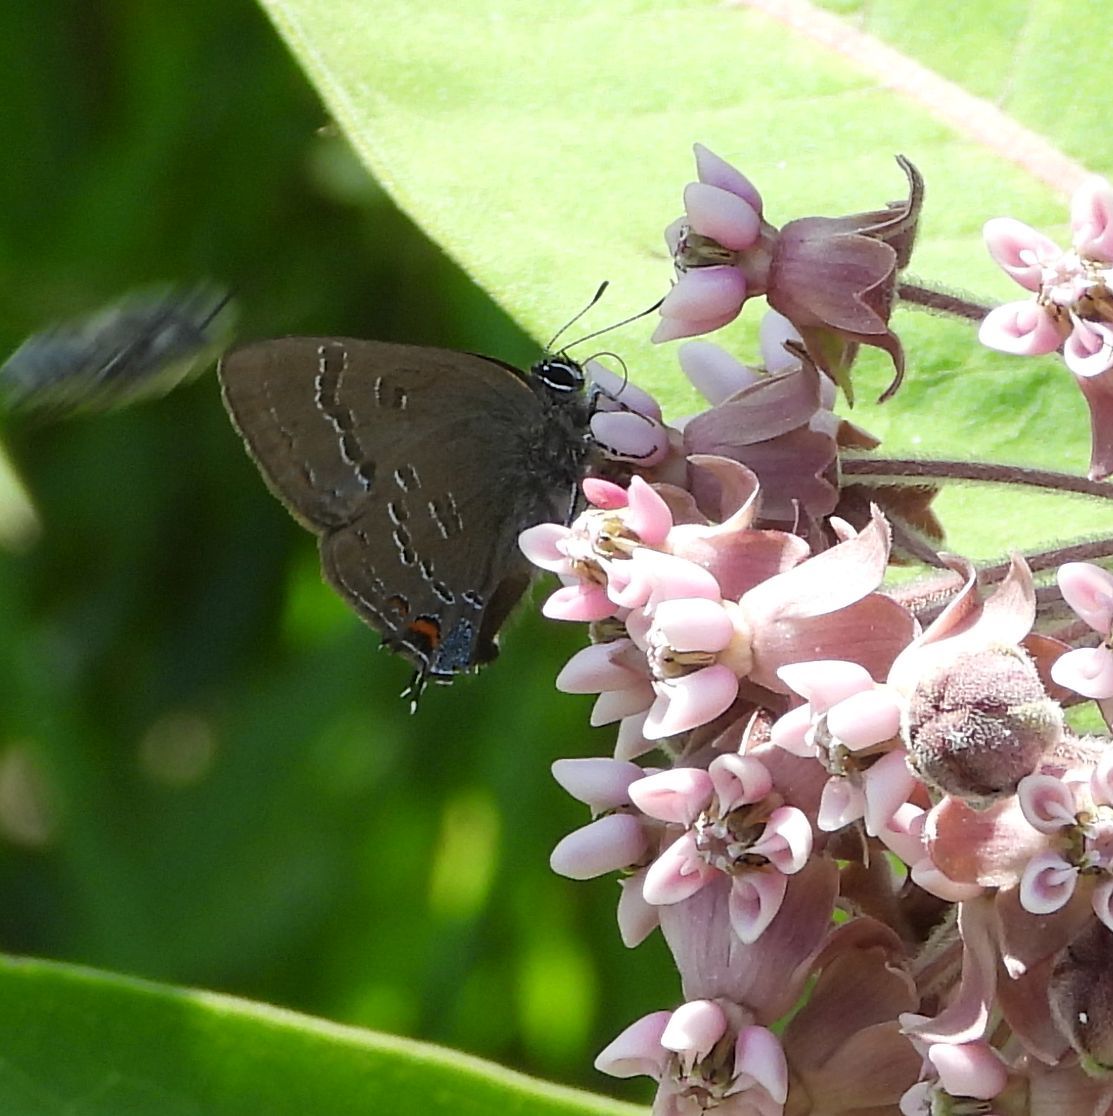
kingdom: Animalia
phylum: Arthropoda
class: Insecta
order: Lepidoptera
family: Lycaenidae
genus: Satyrium
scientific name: Satyrium calanus
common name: Banded hairstreak
